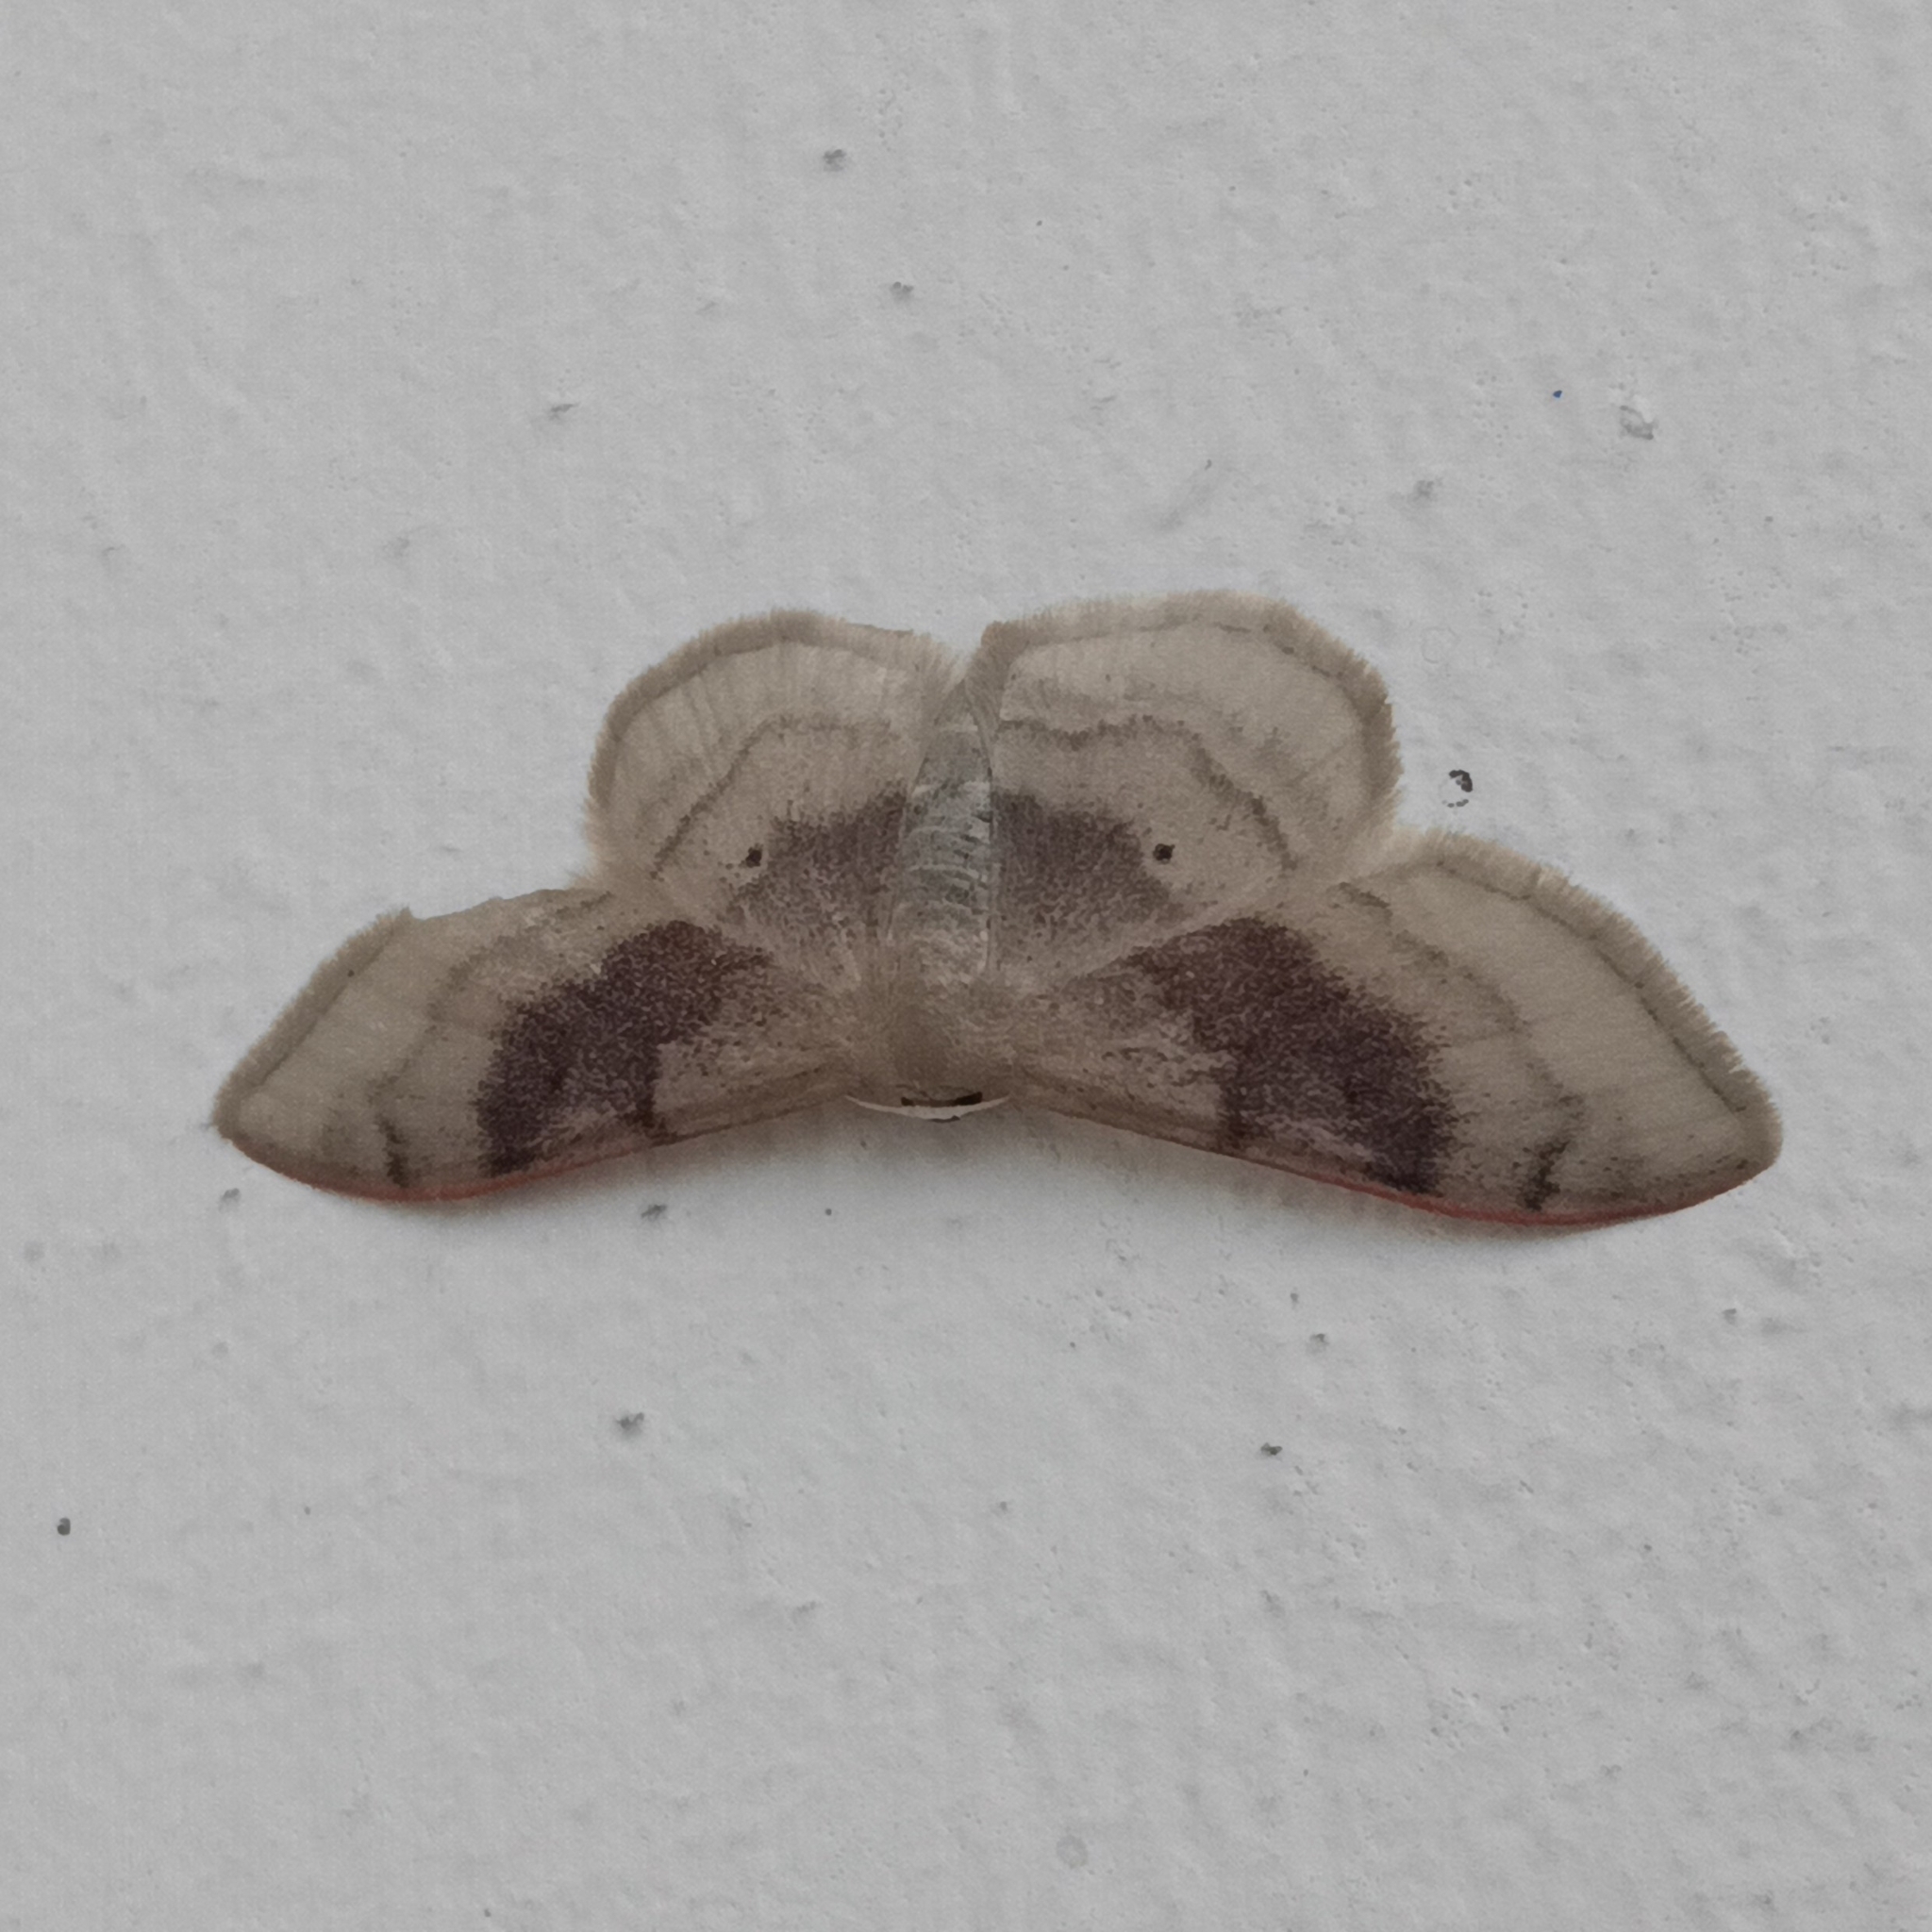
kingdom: Animalia
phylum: Arthropoda
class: Insecta
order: Lepidoptera
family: Geometridae
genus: Idaea
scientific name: Idaea degeneraria
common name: Portland ribbon wave
